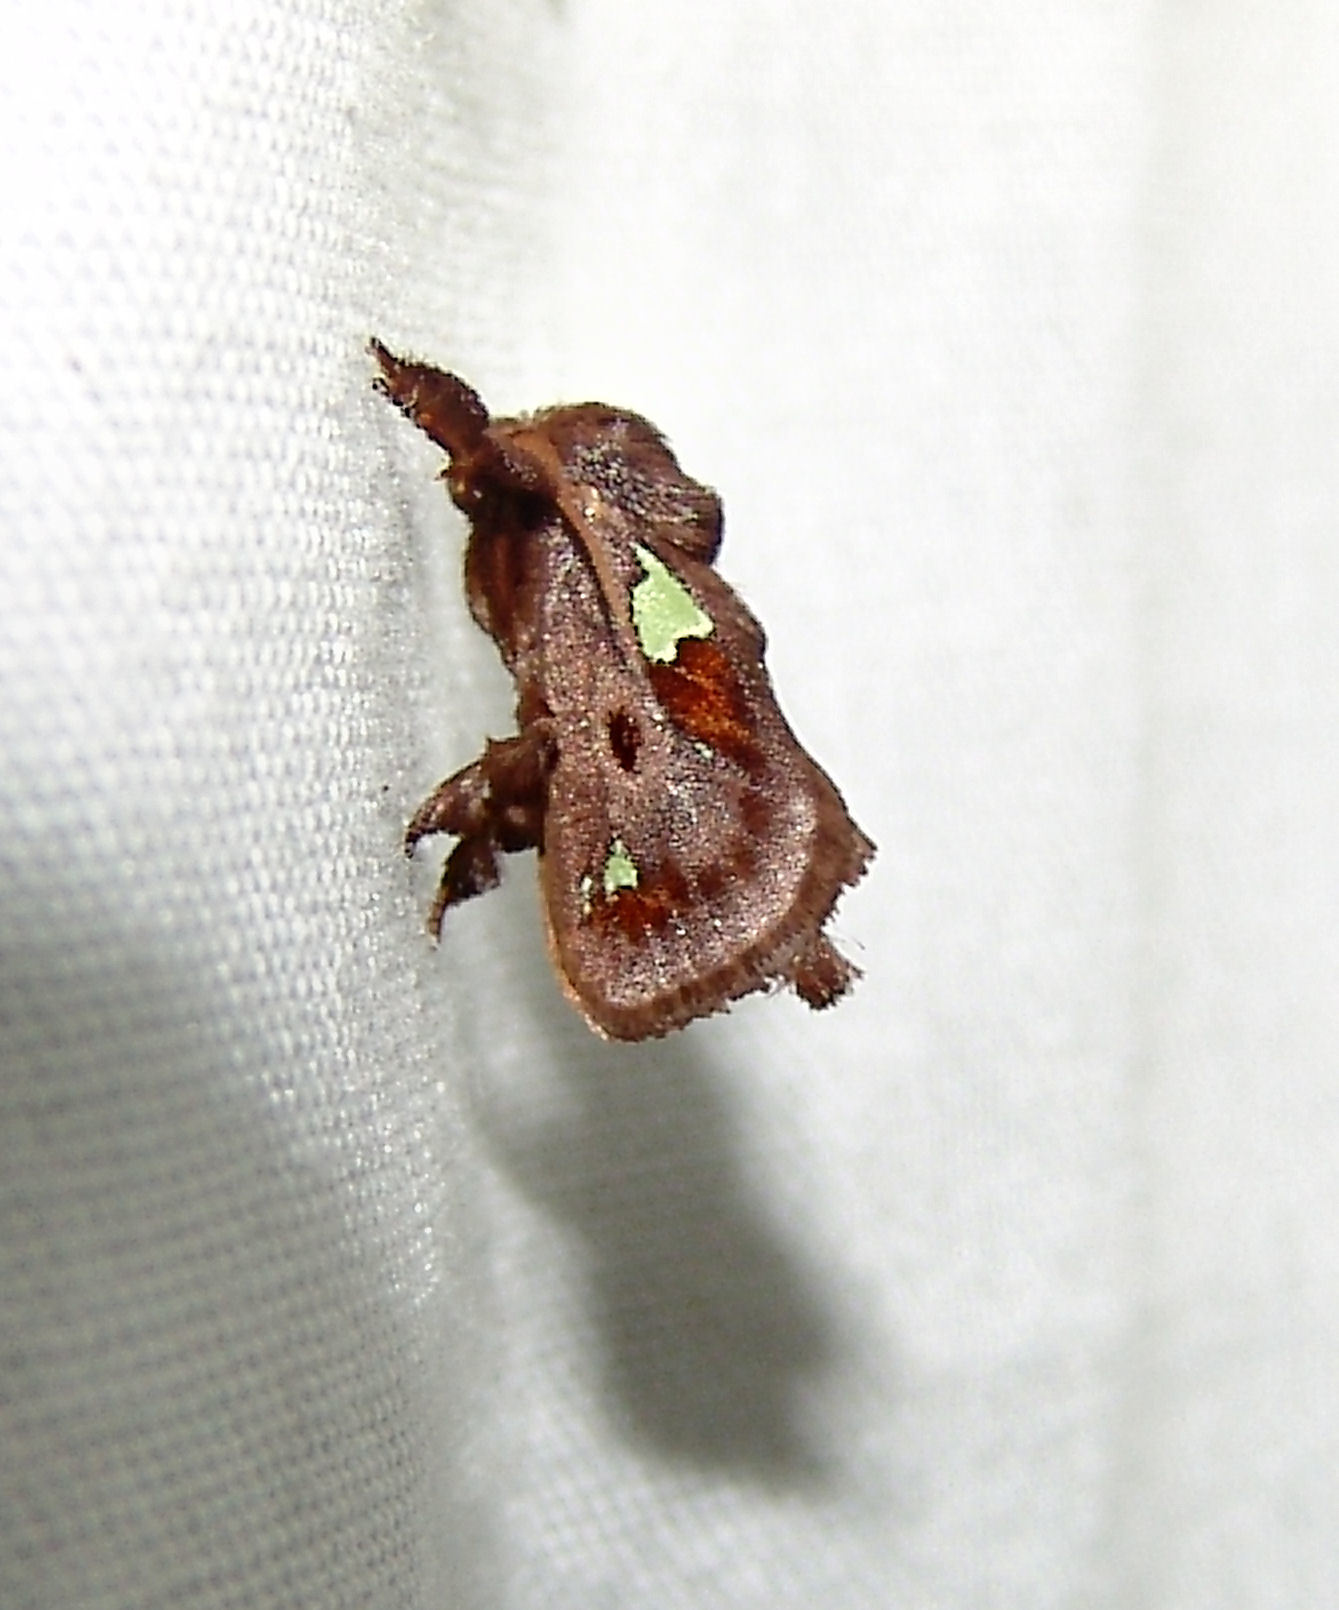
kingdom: Animalia
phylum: Arthropoda
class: Insecta
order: Lepidoptera
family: Limacodidae
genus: Euclea
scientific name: Euclea delphinii
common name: Spiny oak-slug moth
